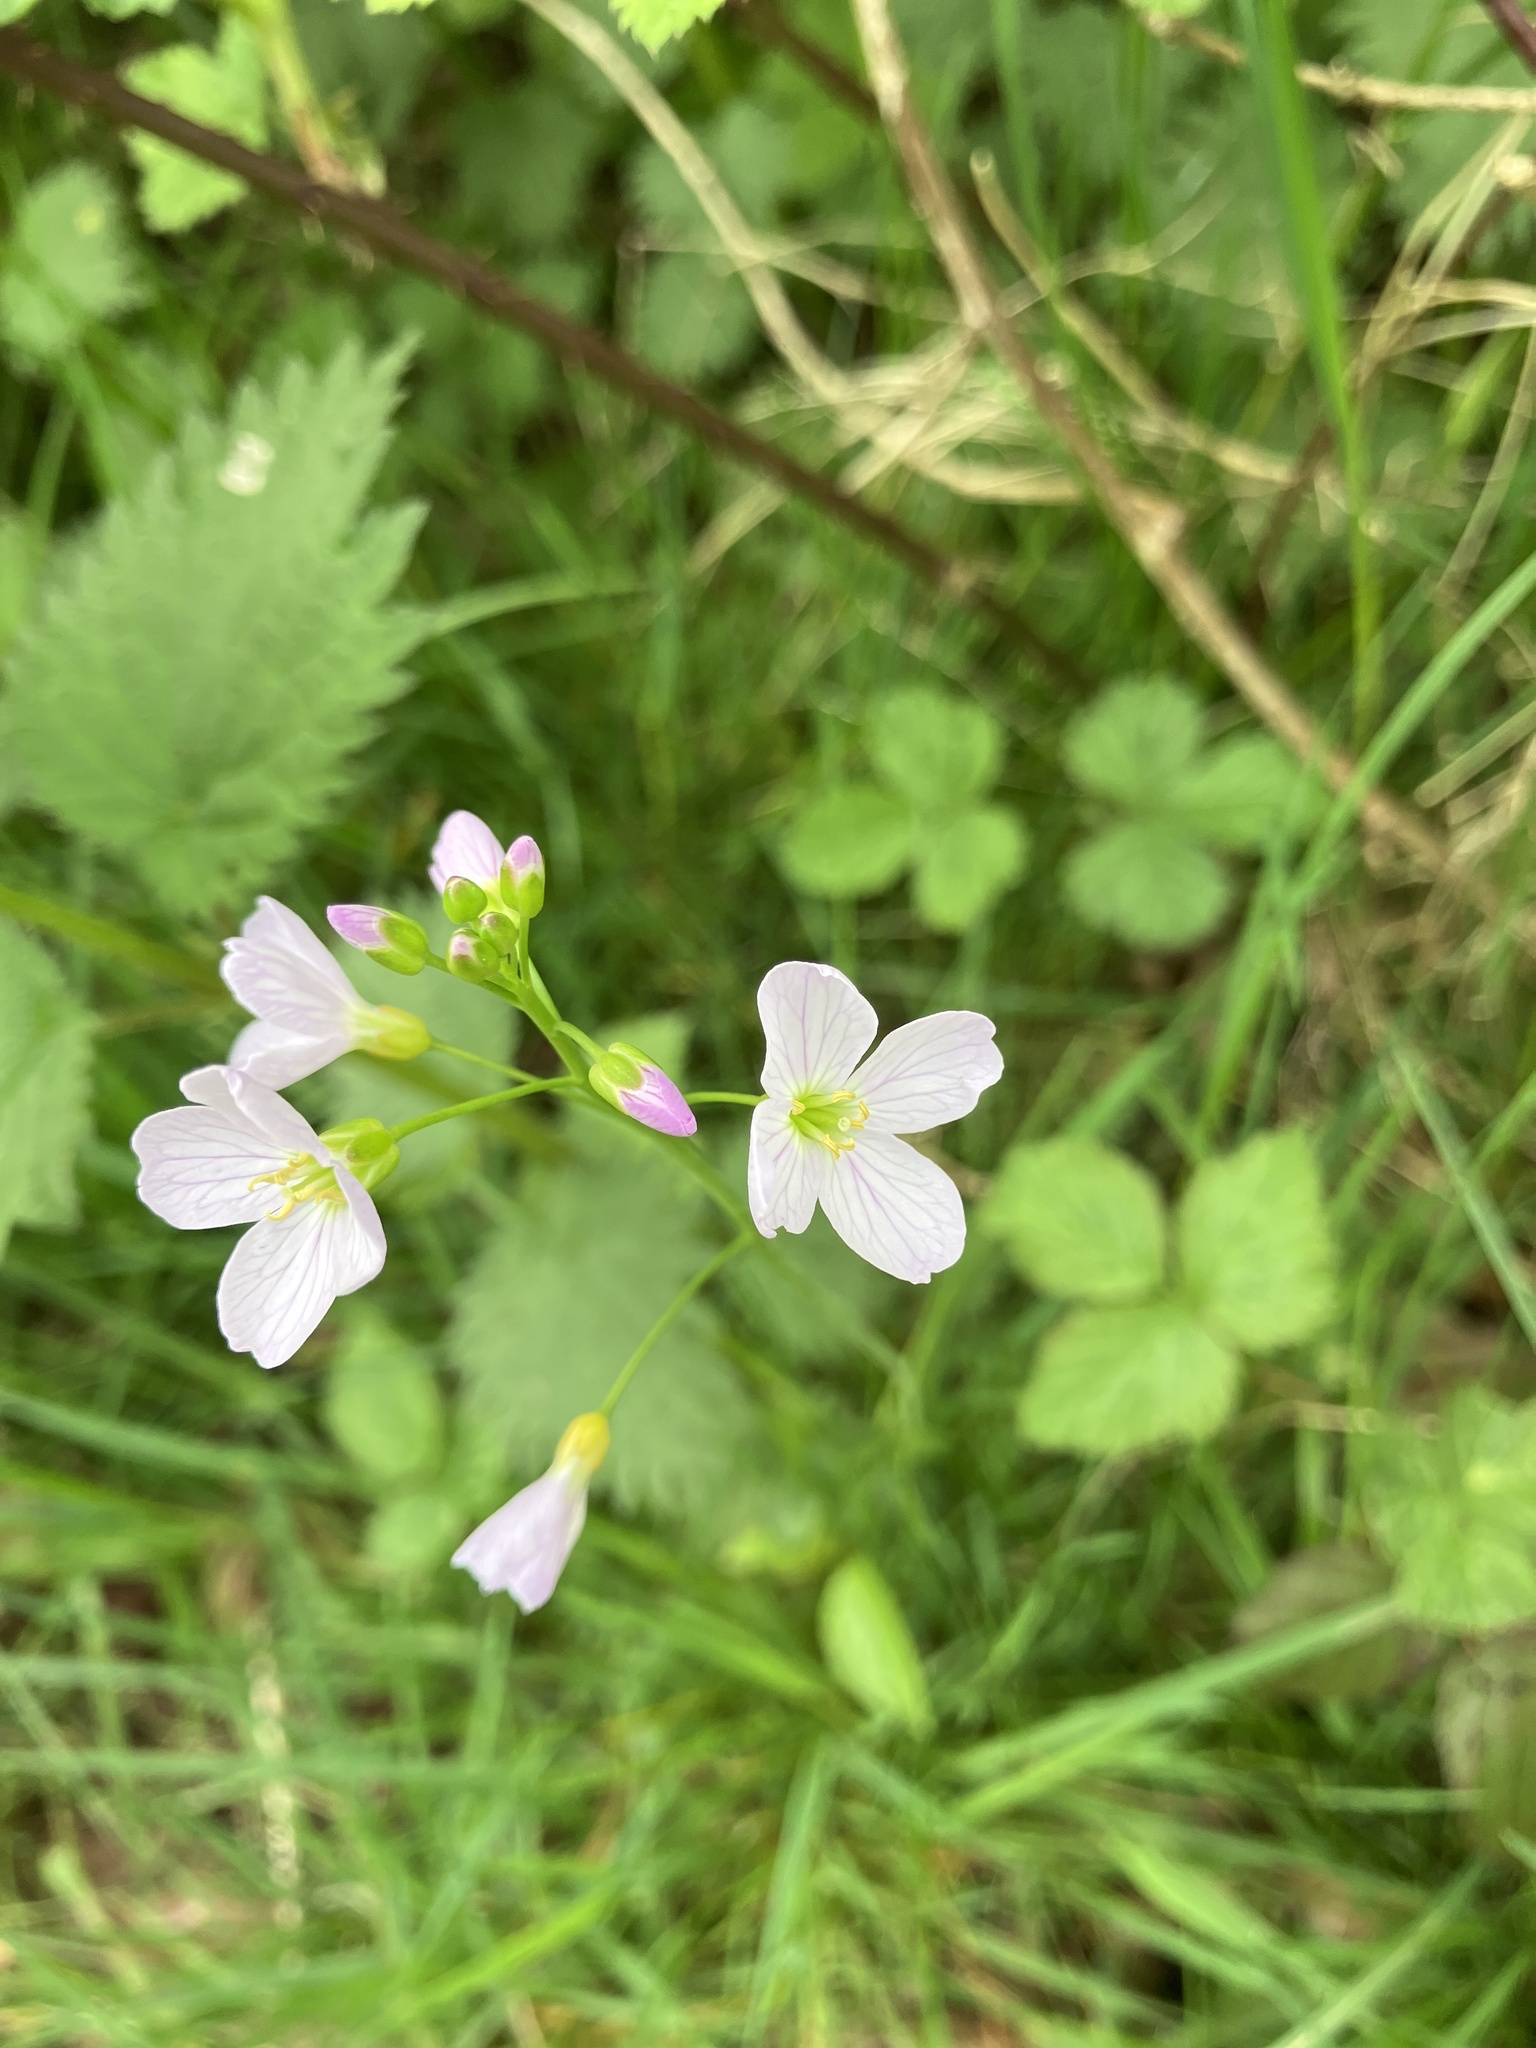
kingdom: Plantae
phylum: Tracheophyta
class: Magnoliopsida
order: Brassicales
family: Brassicaceae
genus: Cardamine
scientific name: Cardamine pratensis
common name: Cuckoo flower
